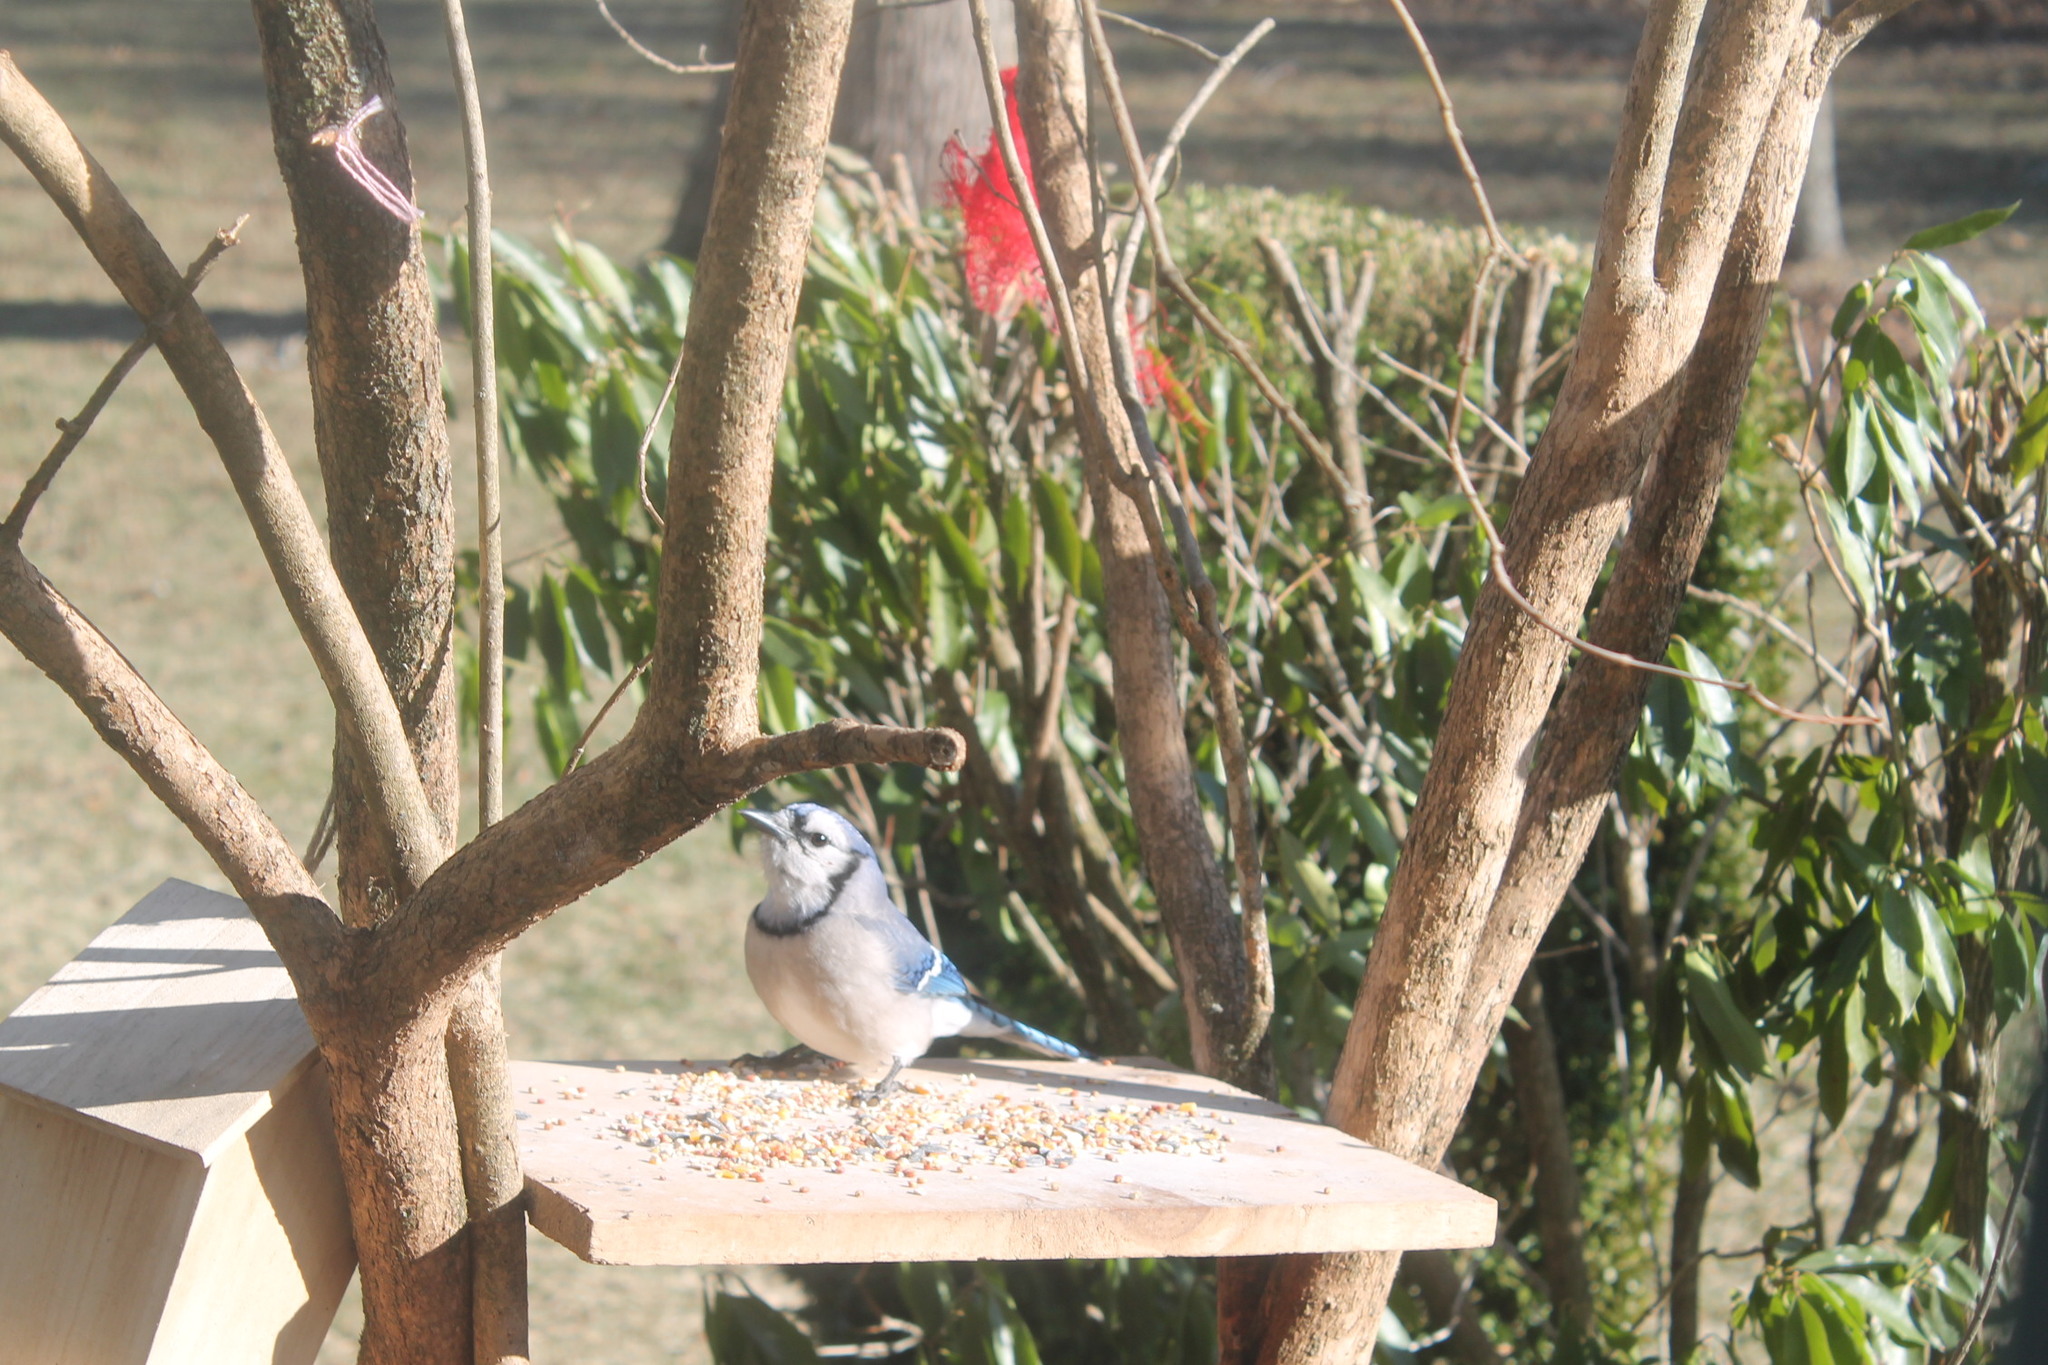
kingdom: Animalia
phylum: Chordata
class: Aves
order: Passeriformes
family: Corvidae
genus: Cyanocitta
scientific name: Cyanocitta cristata
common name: Blue jay
